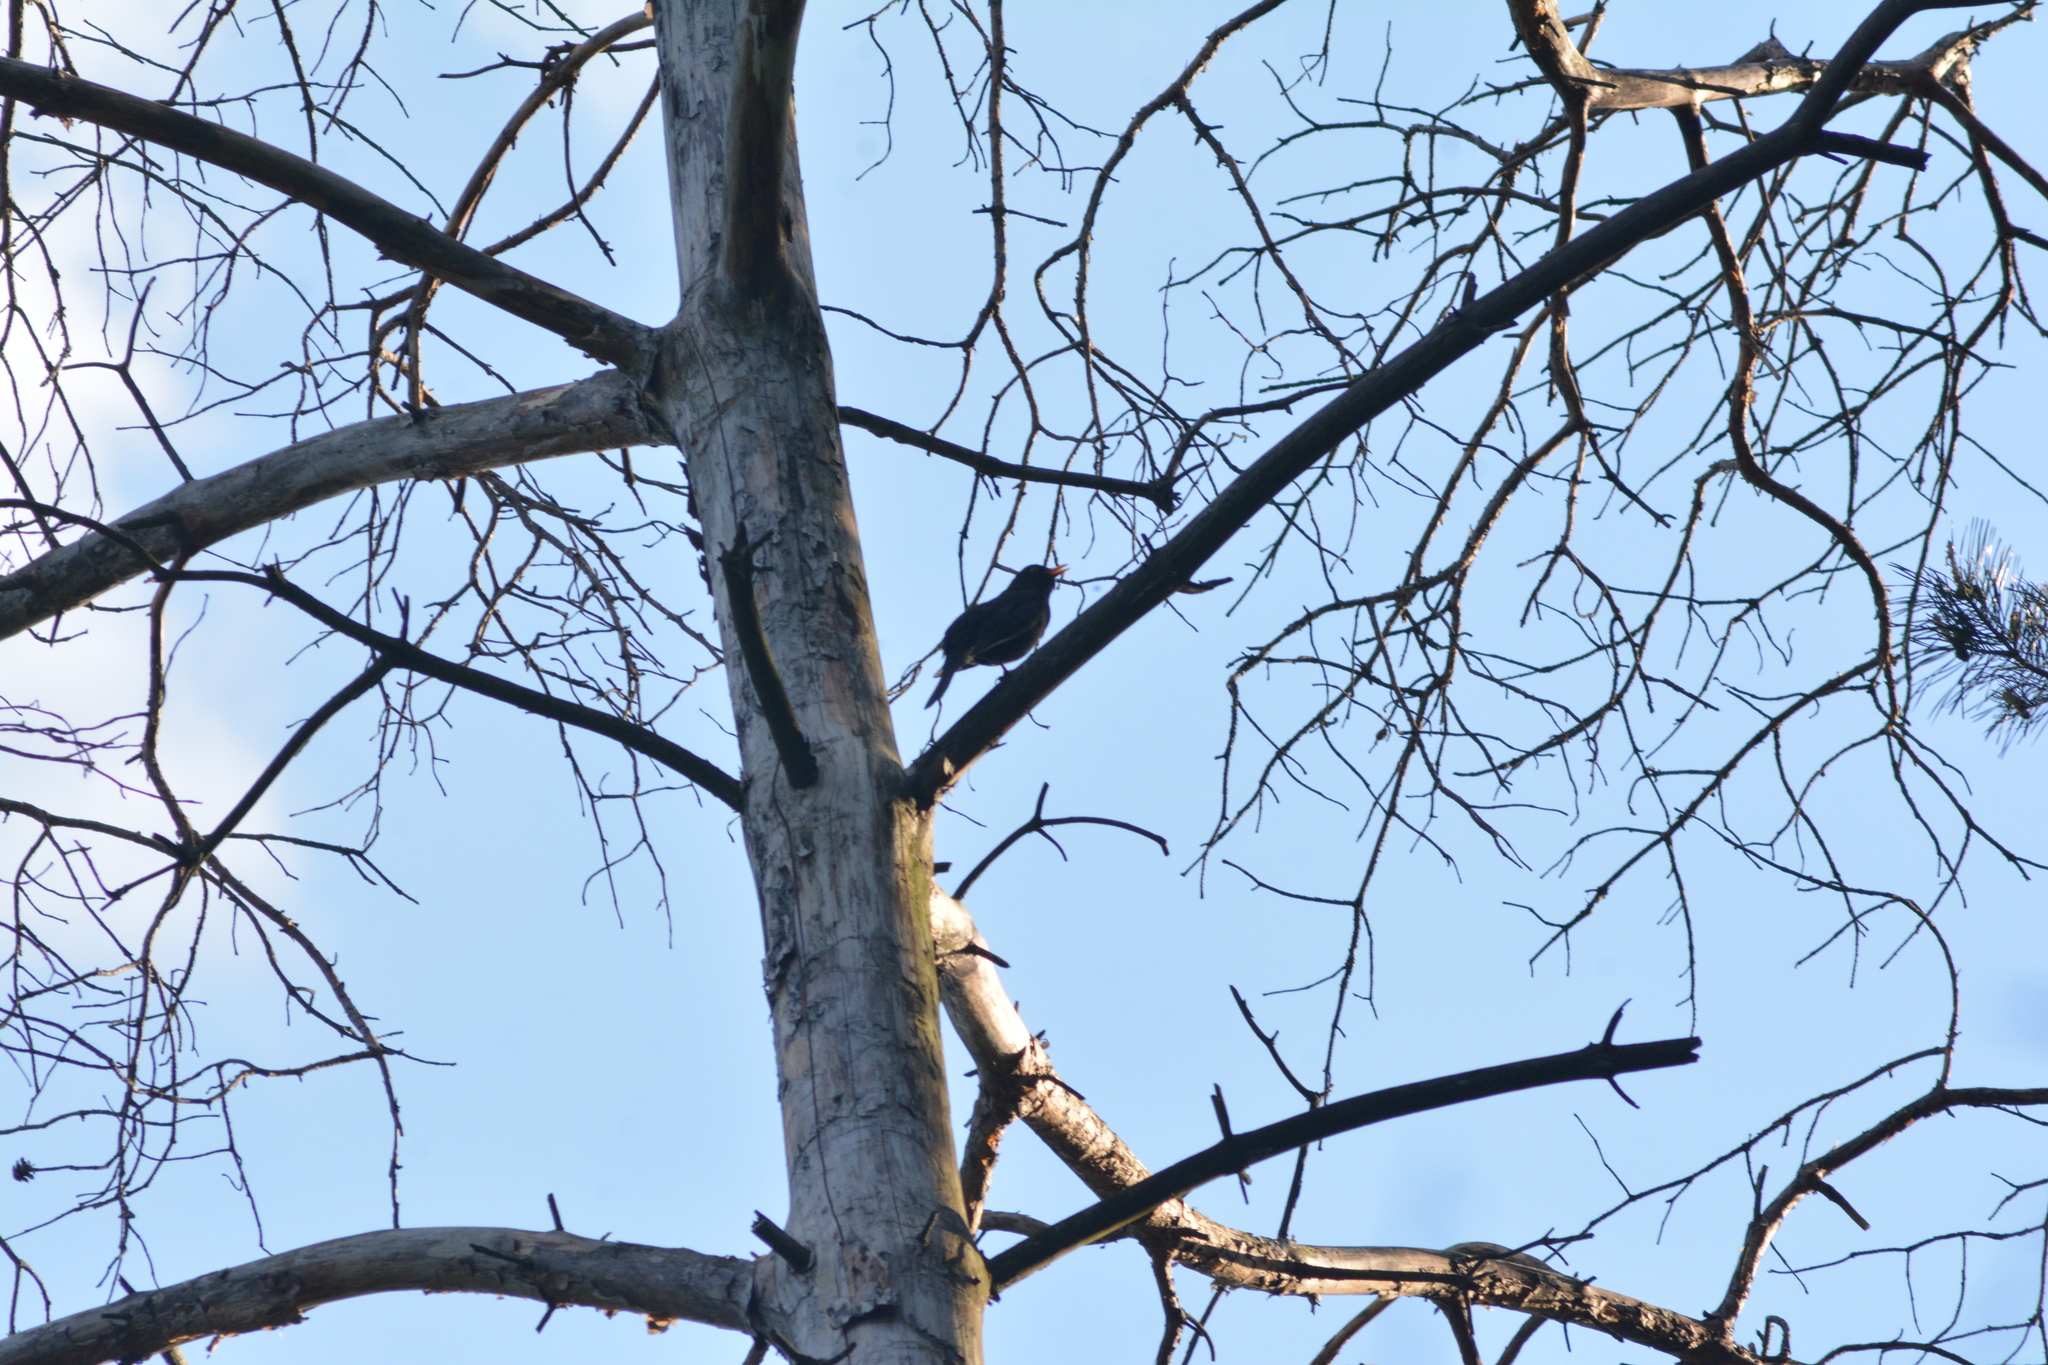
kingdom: Animalia
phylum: Chordata
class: Aves
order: Passeriformes
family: Turdidae
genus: Turdus
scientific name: Turdus merula
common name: Common blackbird
